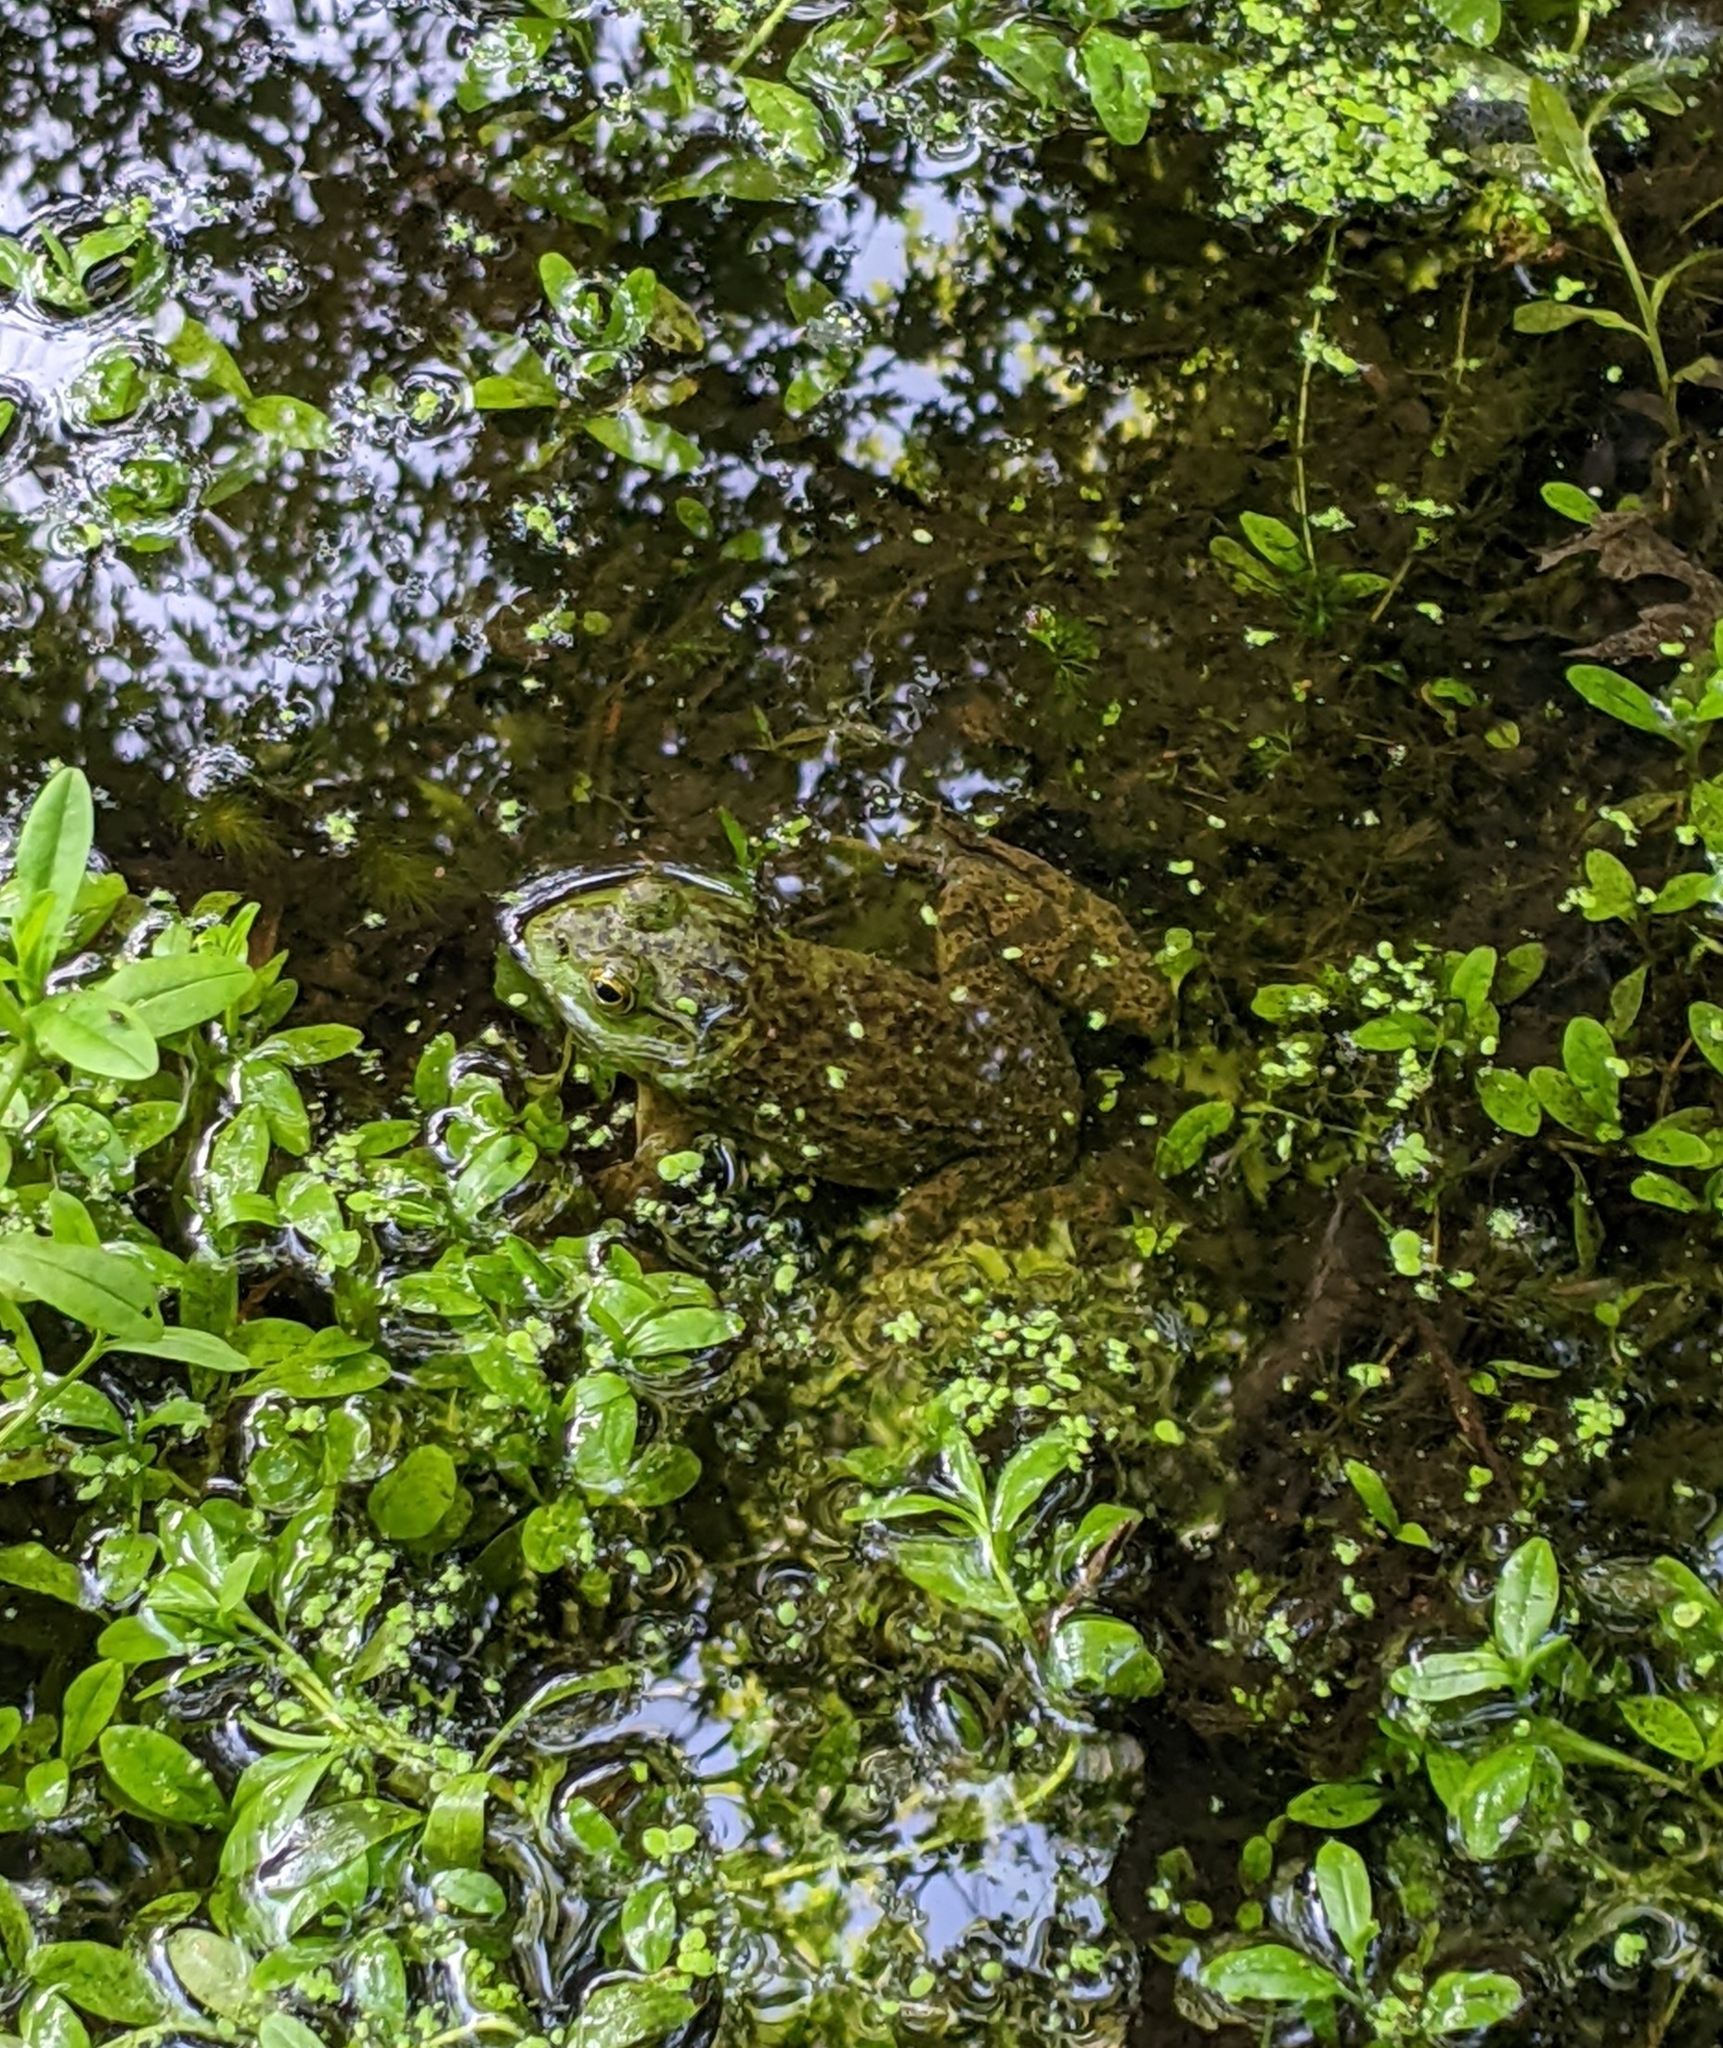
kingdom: Animalia
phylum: Chordata
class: Amphibia
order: Anura
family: Ranidae
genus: Lithobates
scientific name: Lithobates catesbeianus
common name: American bullfrog
